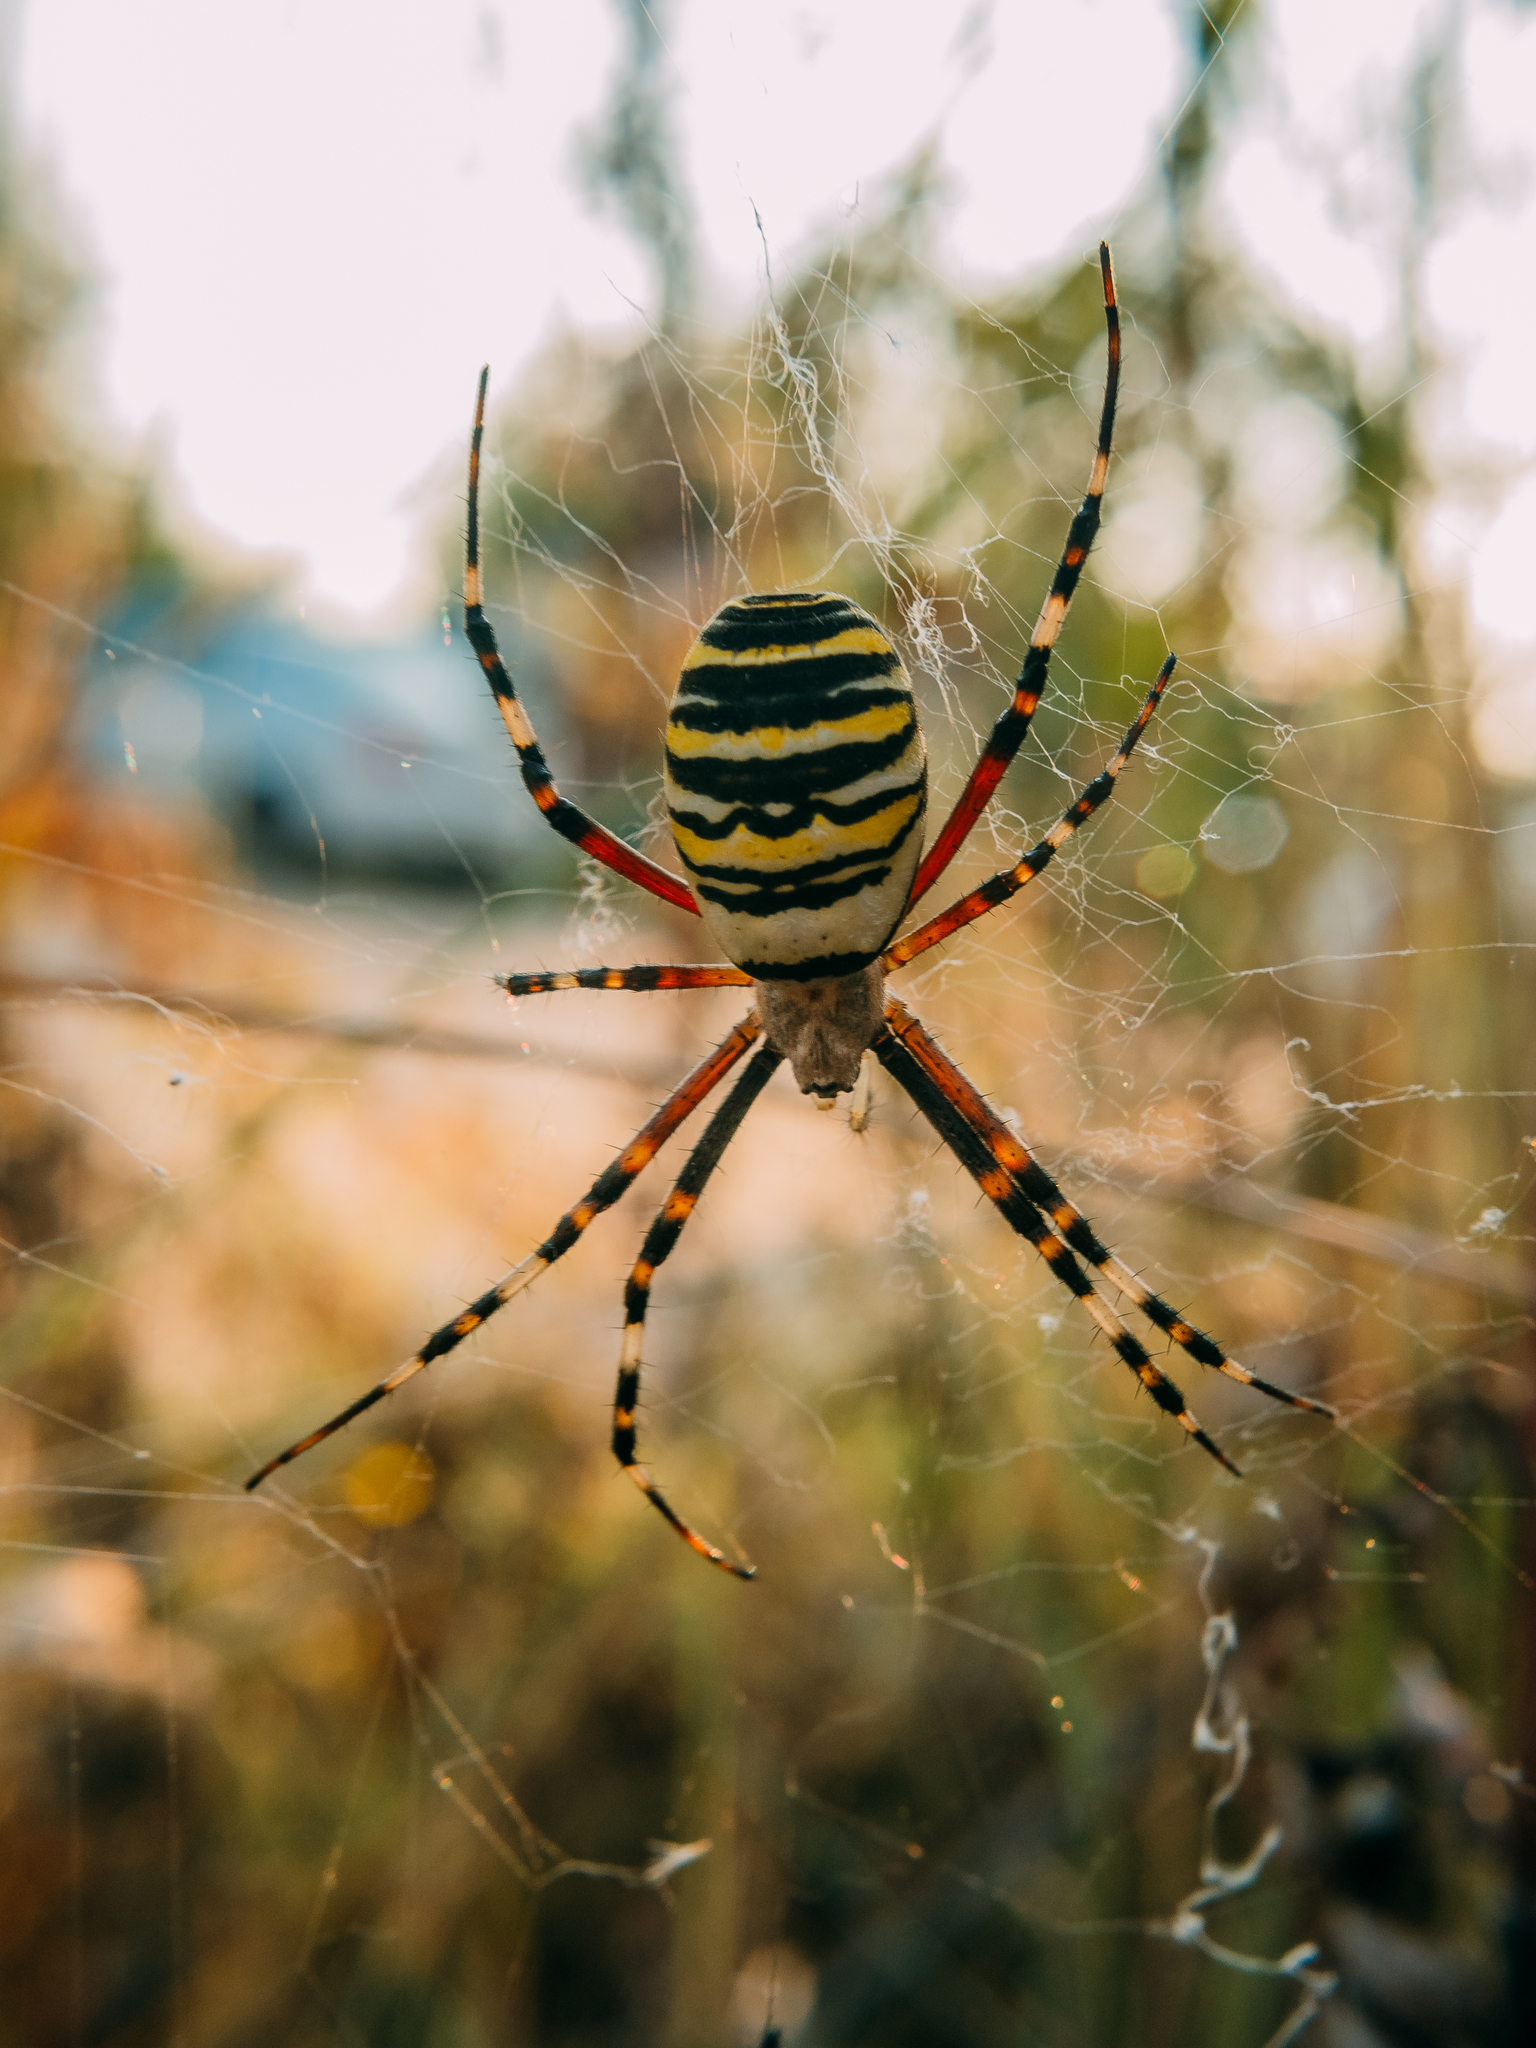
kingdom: Animalia
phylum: Arthropoda
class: Arachnida
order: Araneae
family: Araneidae
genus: Argiope
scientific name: Argiope bruennichi
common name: Wasp spider
